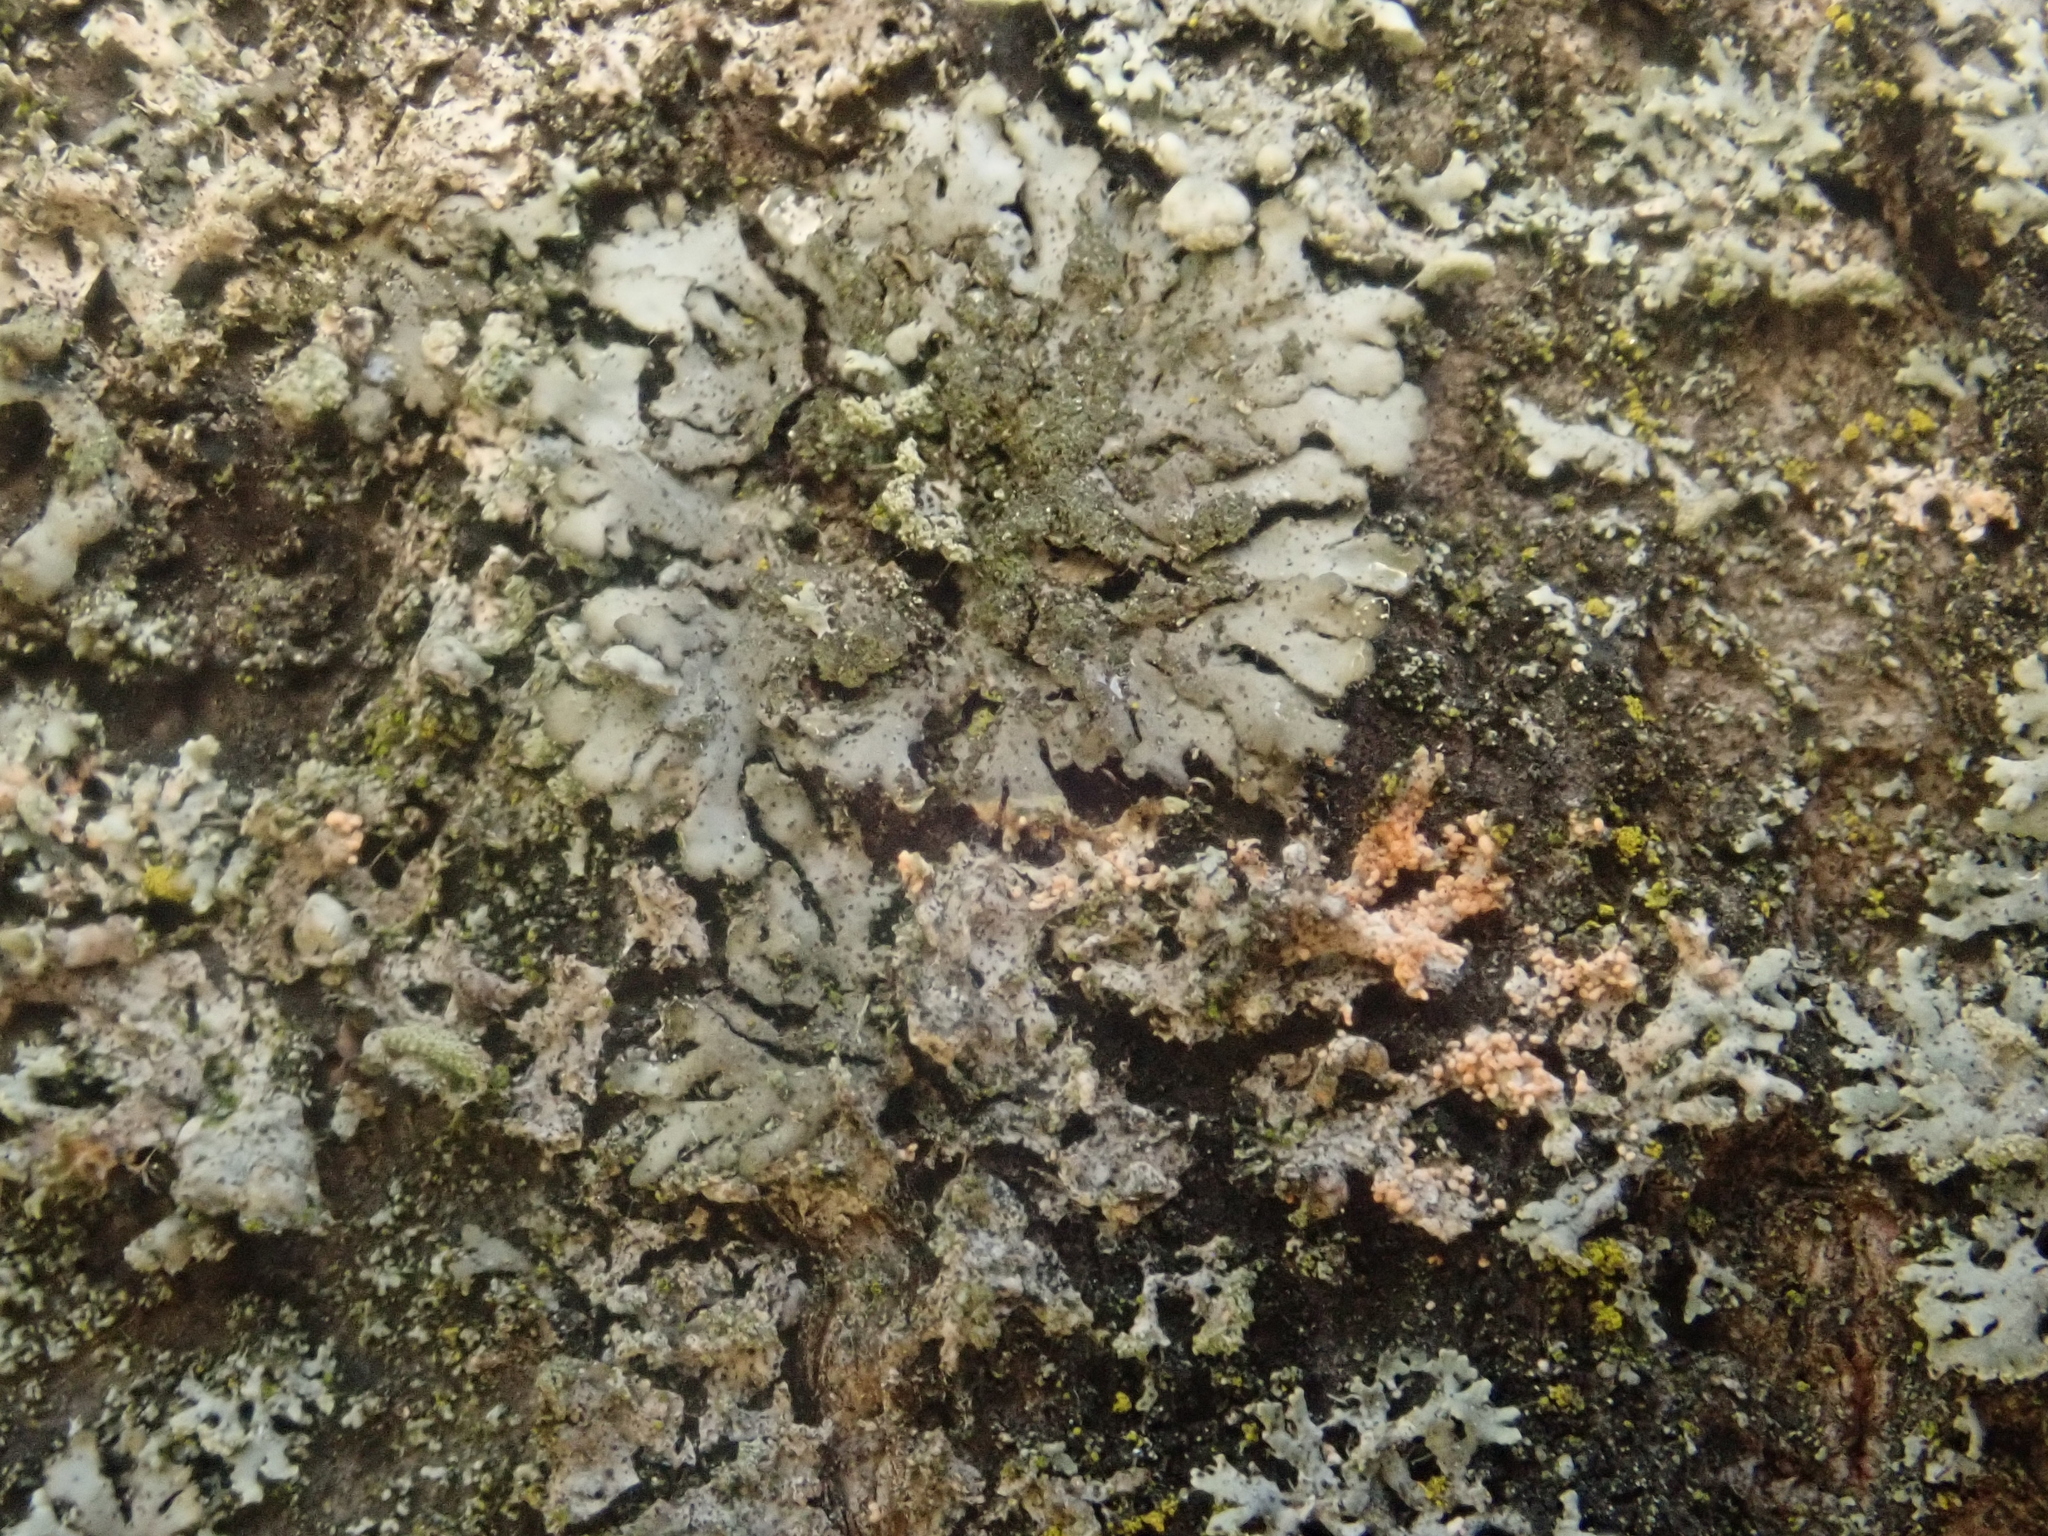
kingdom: Fungi
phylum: Ascomycota
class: Lecanoromycetes
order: Caliciales
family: Physciaceae
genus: Phaeophyscia
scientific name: Phaeophyscia orbicularis
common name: Mealy shadow lichen
